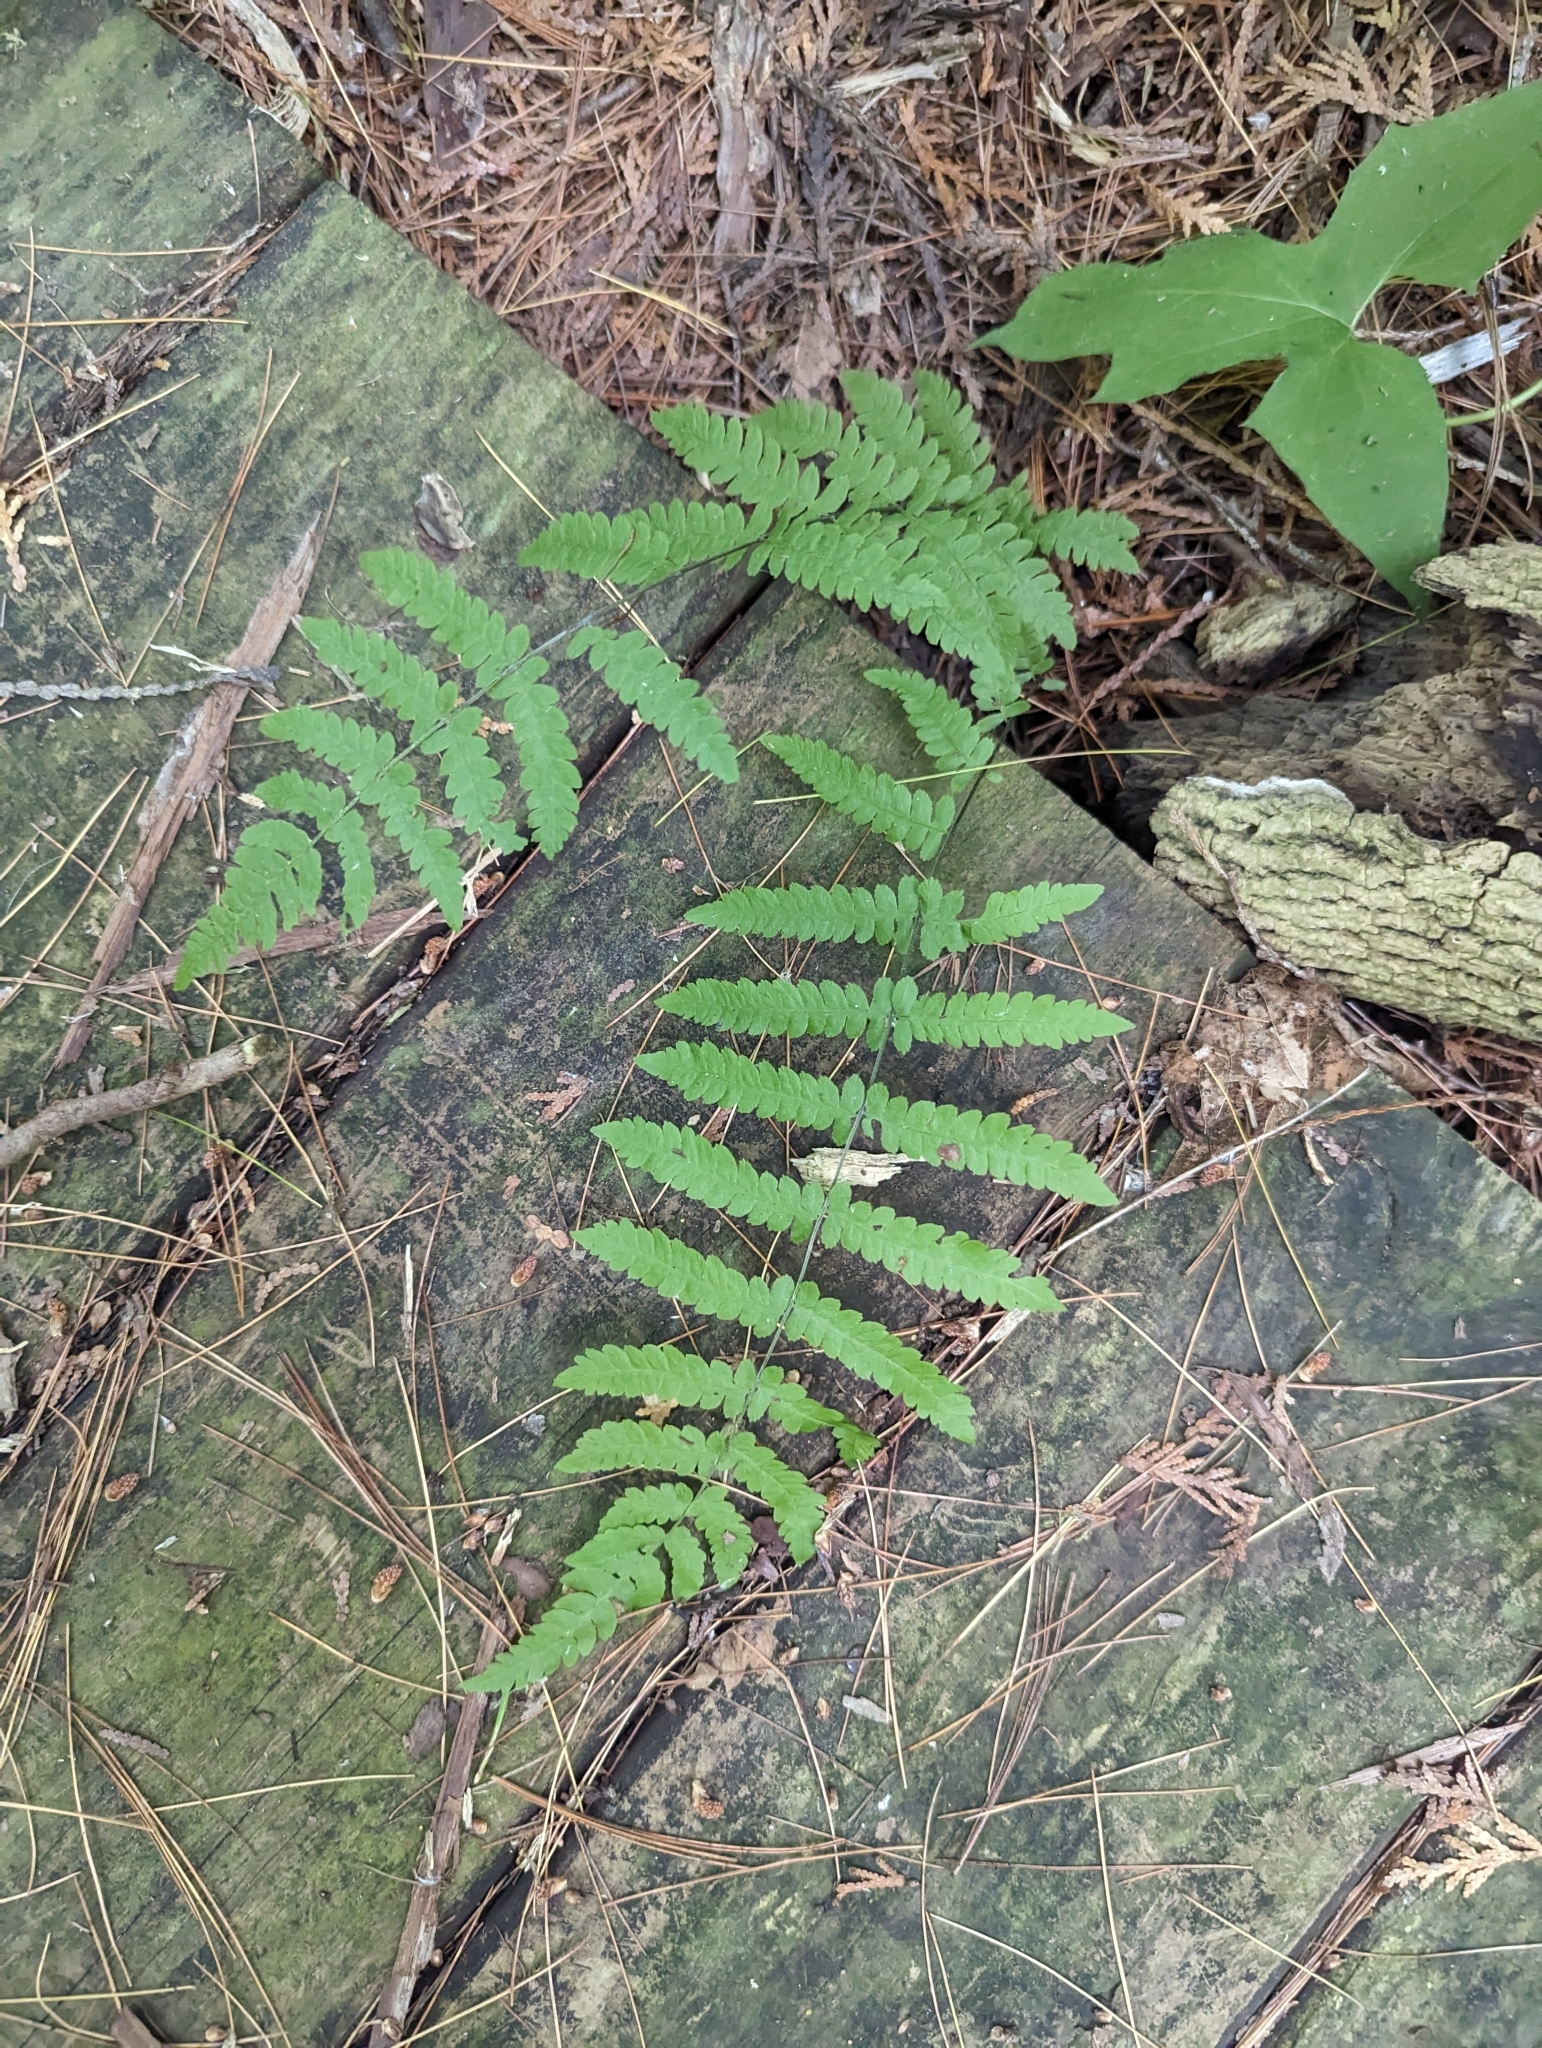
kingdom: Plantae
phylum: Tracheophyta
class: Polypodiopsida
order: Polypodiales
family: Thelypteridaceae
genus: Thelypteris
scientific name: Thelypteris palustris
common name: Marsh fern
